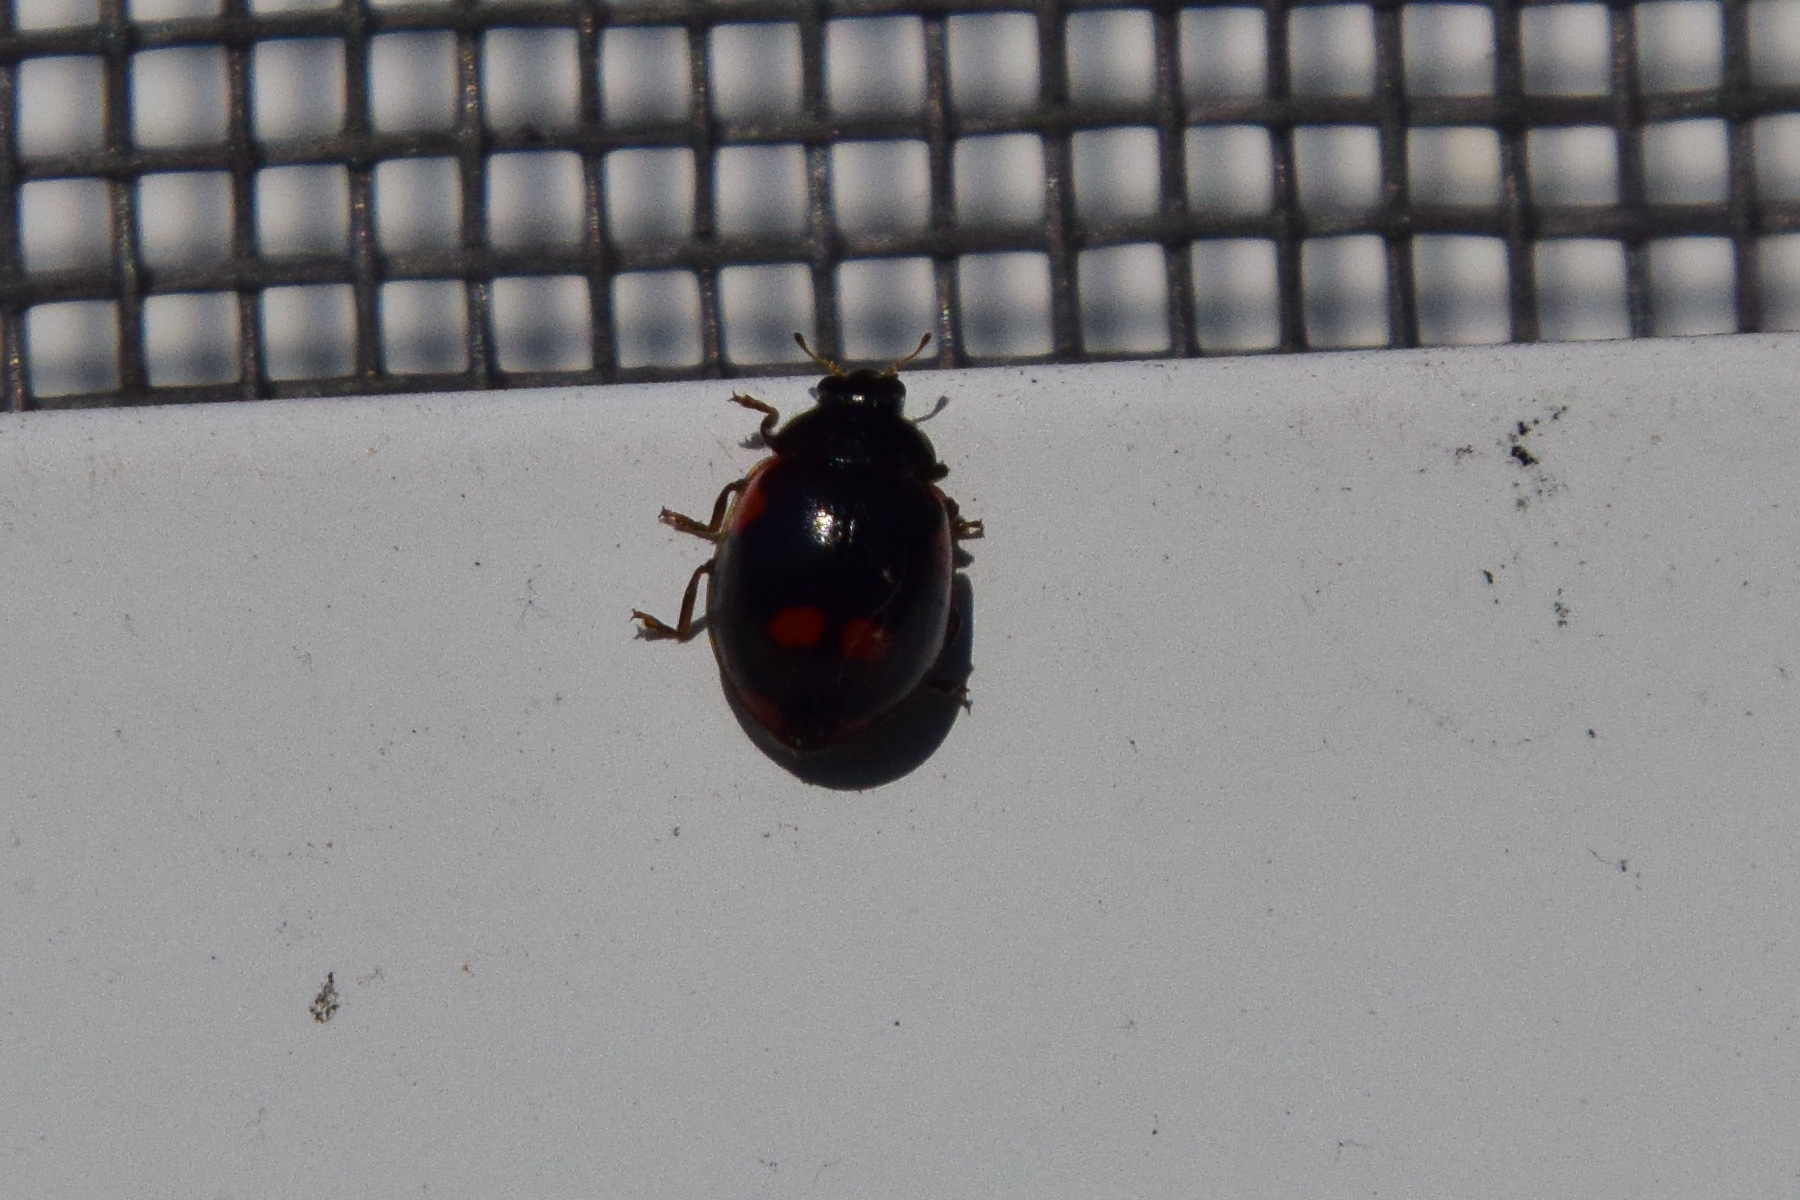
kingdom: Animalia
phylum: Arthropoda
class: Insecta
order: Coleoptera
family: Coccinellidae
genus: Adalia
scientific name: Adalia bipunctata
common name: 2-spot ladybird
